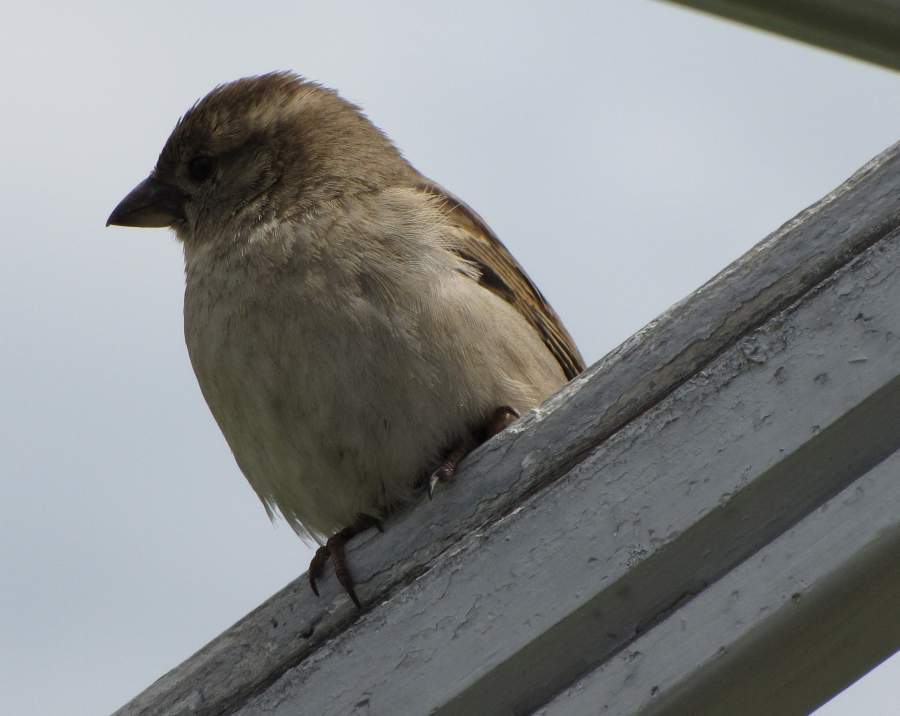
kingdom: Animalia
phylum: Chordata
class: Aves
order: Passeriformes
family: Passeridae
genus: Passer
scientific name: Passer domesticus
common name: House sparrow
